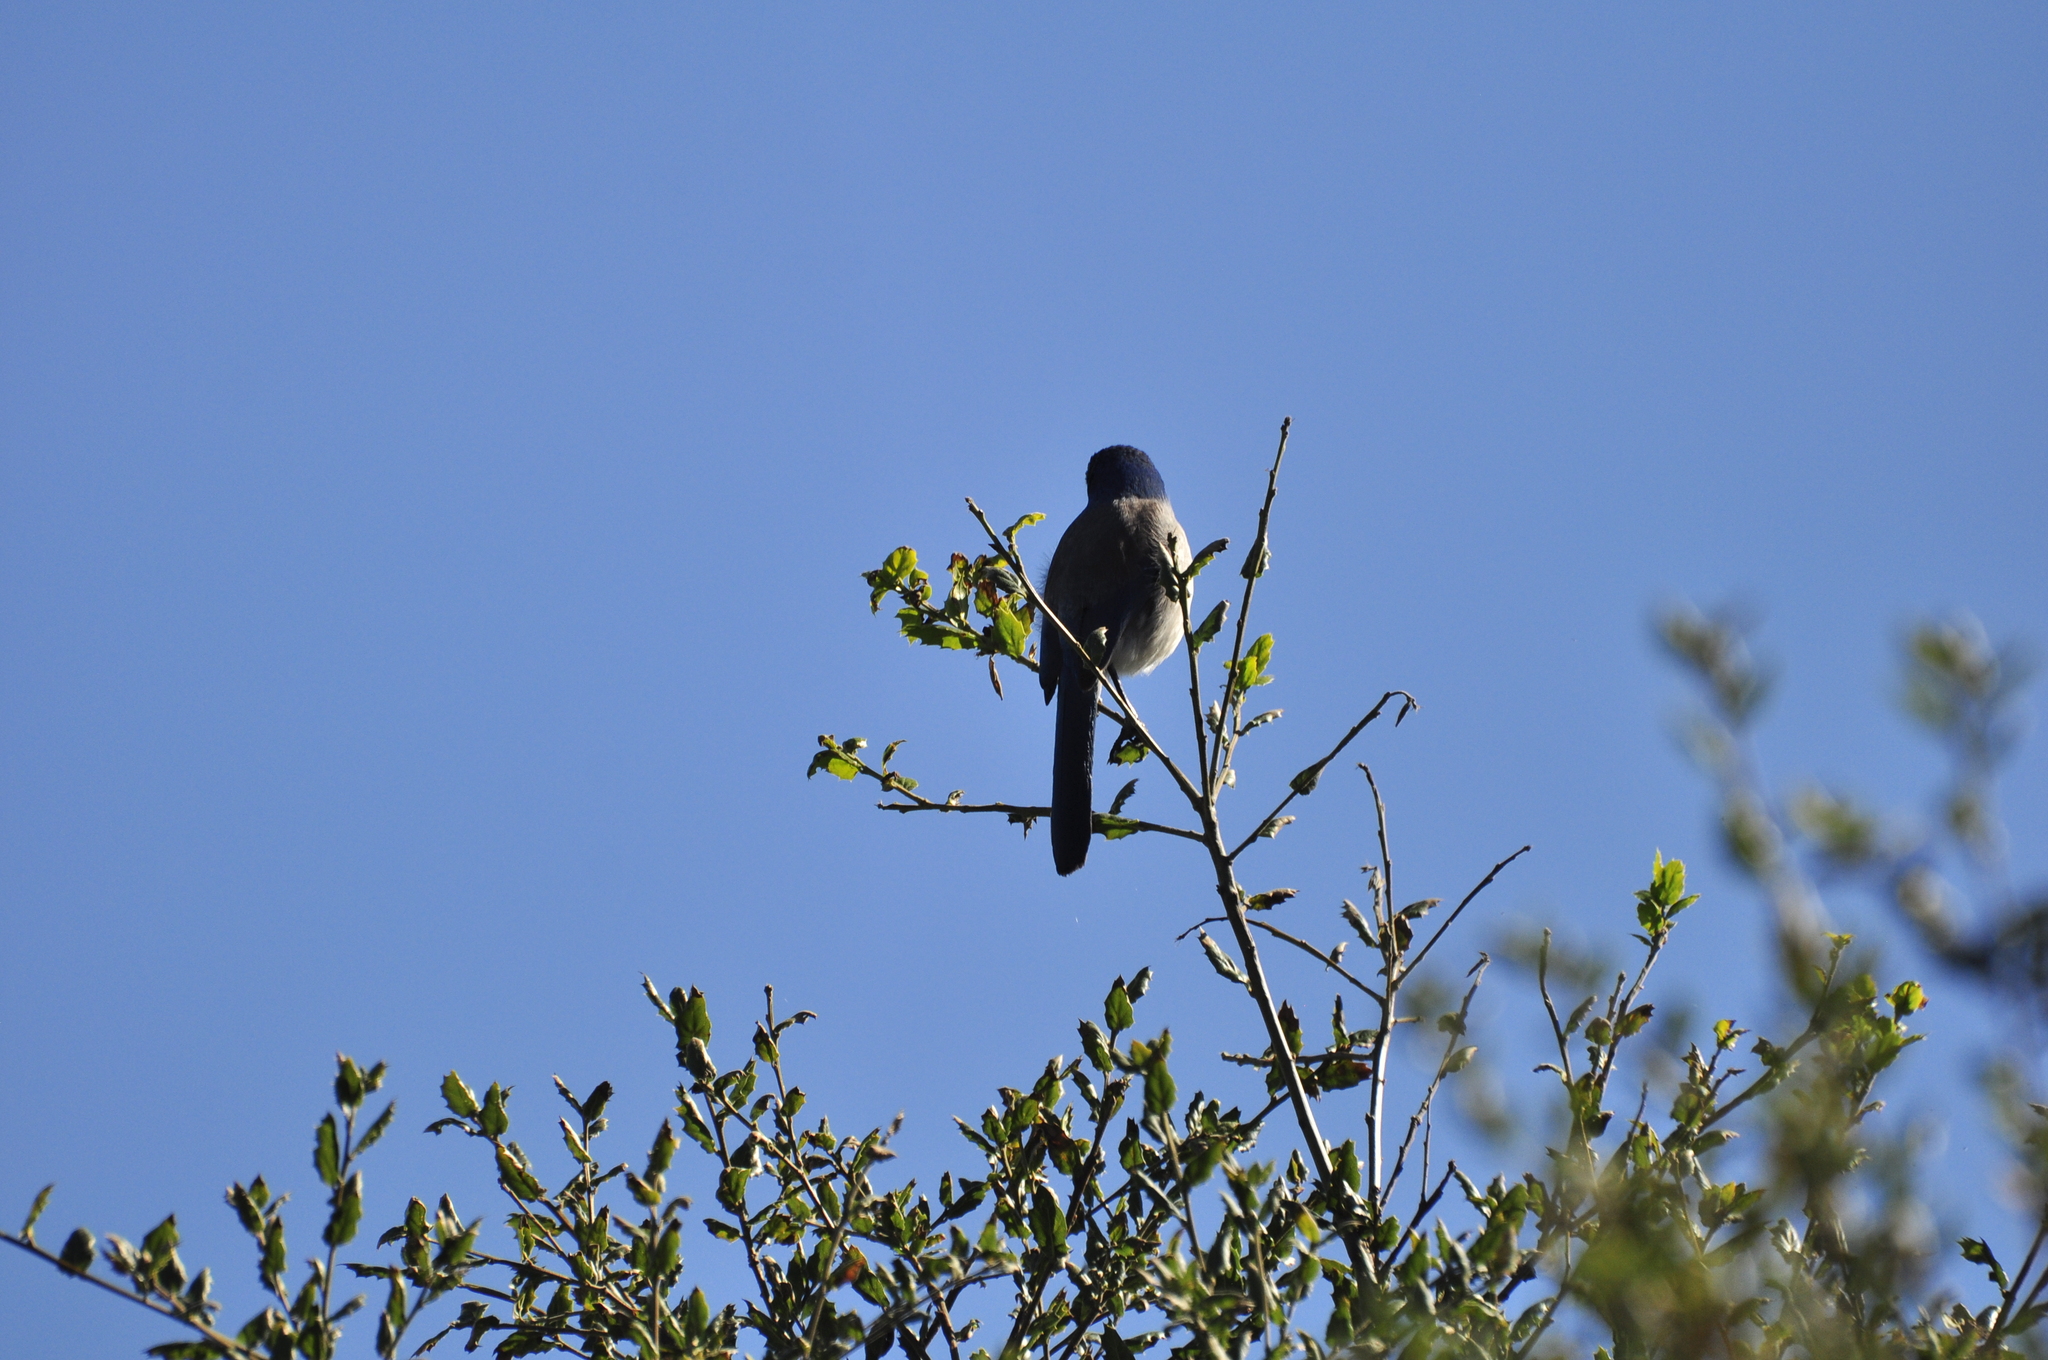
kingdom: Animalia
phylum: Chordata
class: Aves
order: Passeriformes
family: Corvidae
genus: Aphelocoma
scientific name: Aphelocoma californica
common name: California scrub-jay
